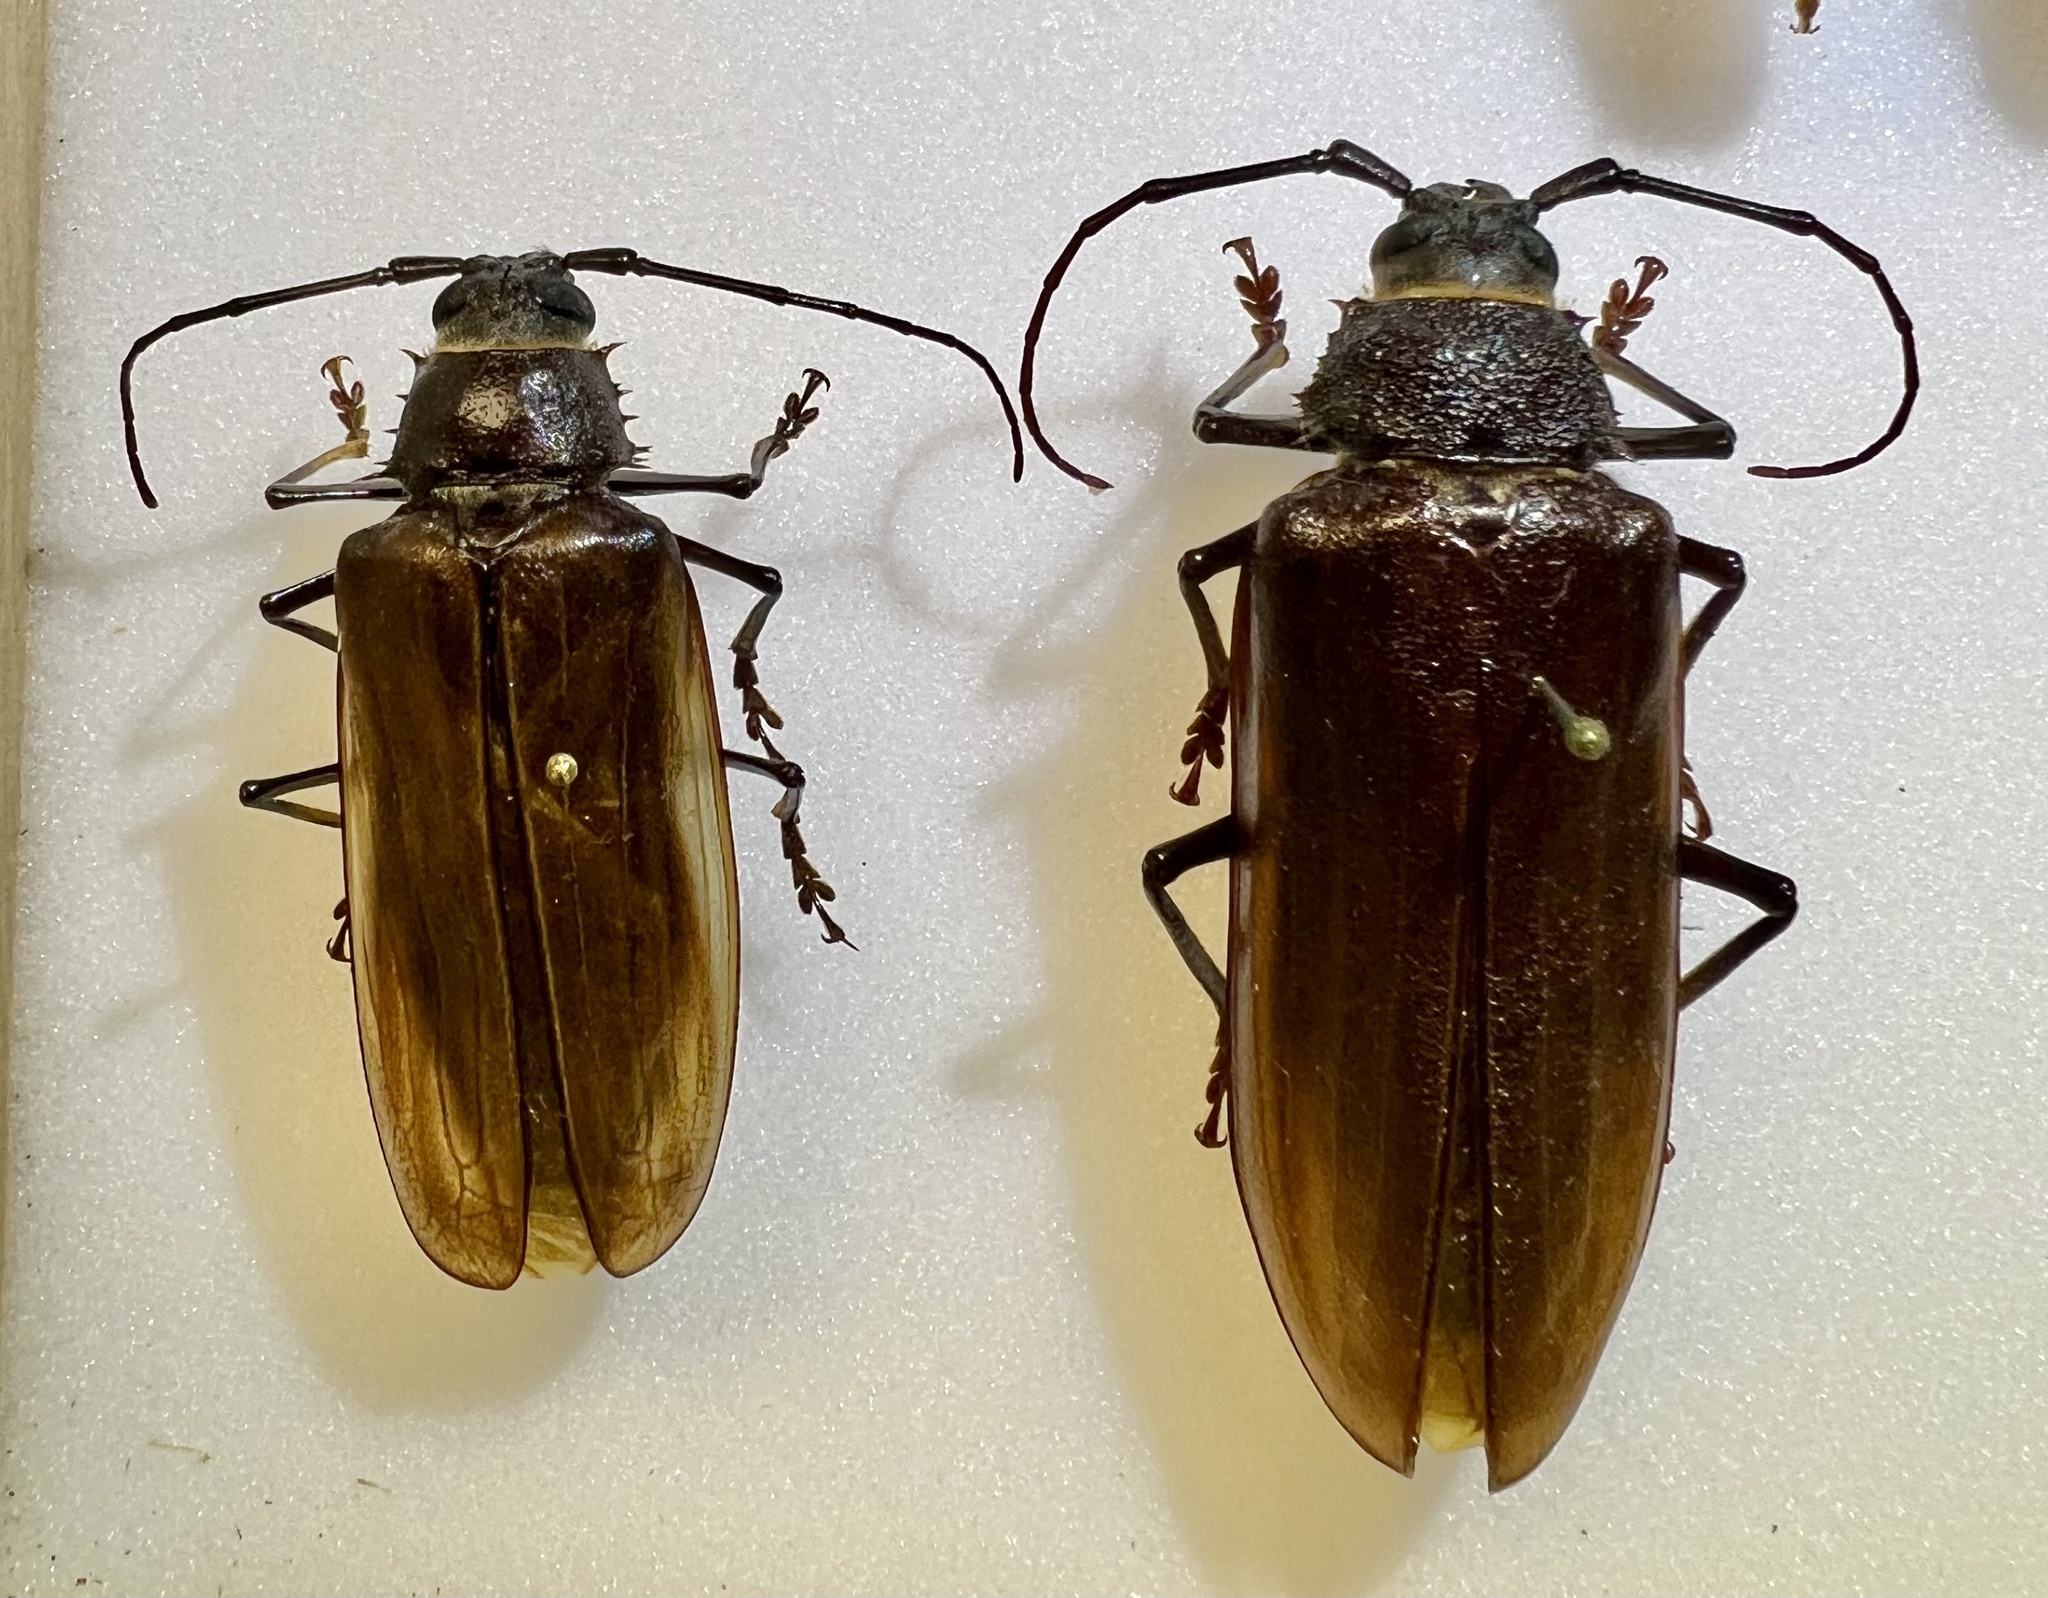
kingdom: Animalia
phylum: Arthropoda
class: Insecta
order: Coleoptera
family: Cerambycidae
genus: Trichocnemis
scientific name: Trichocnemis pauper
